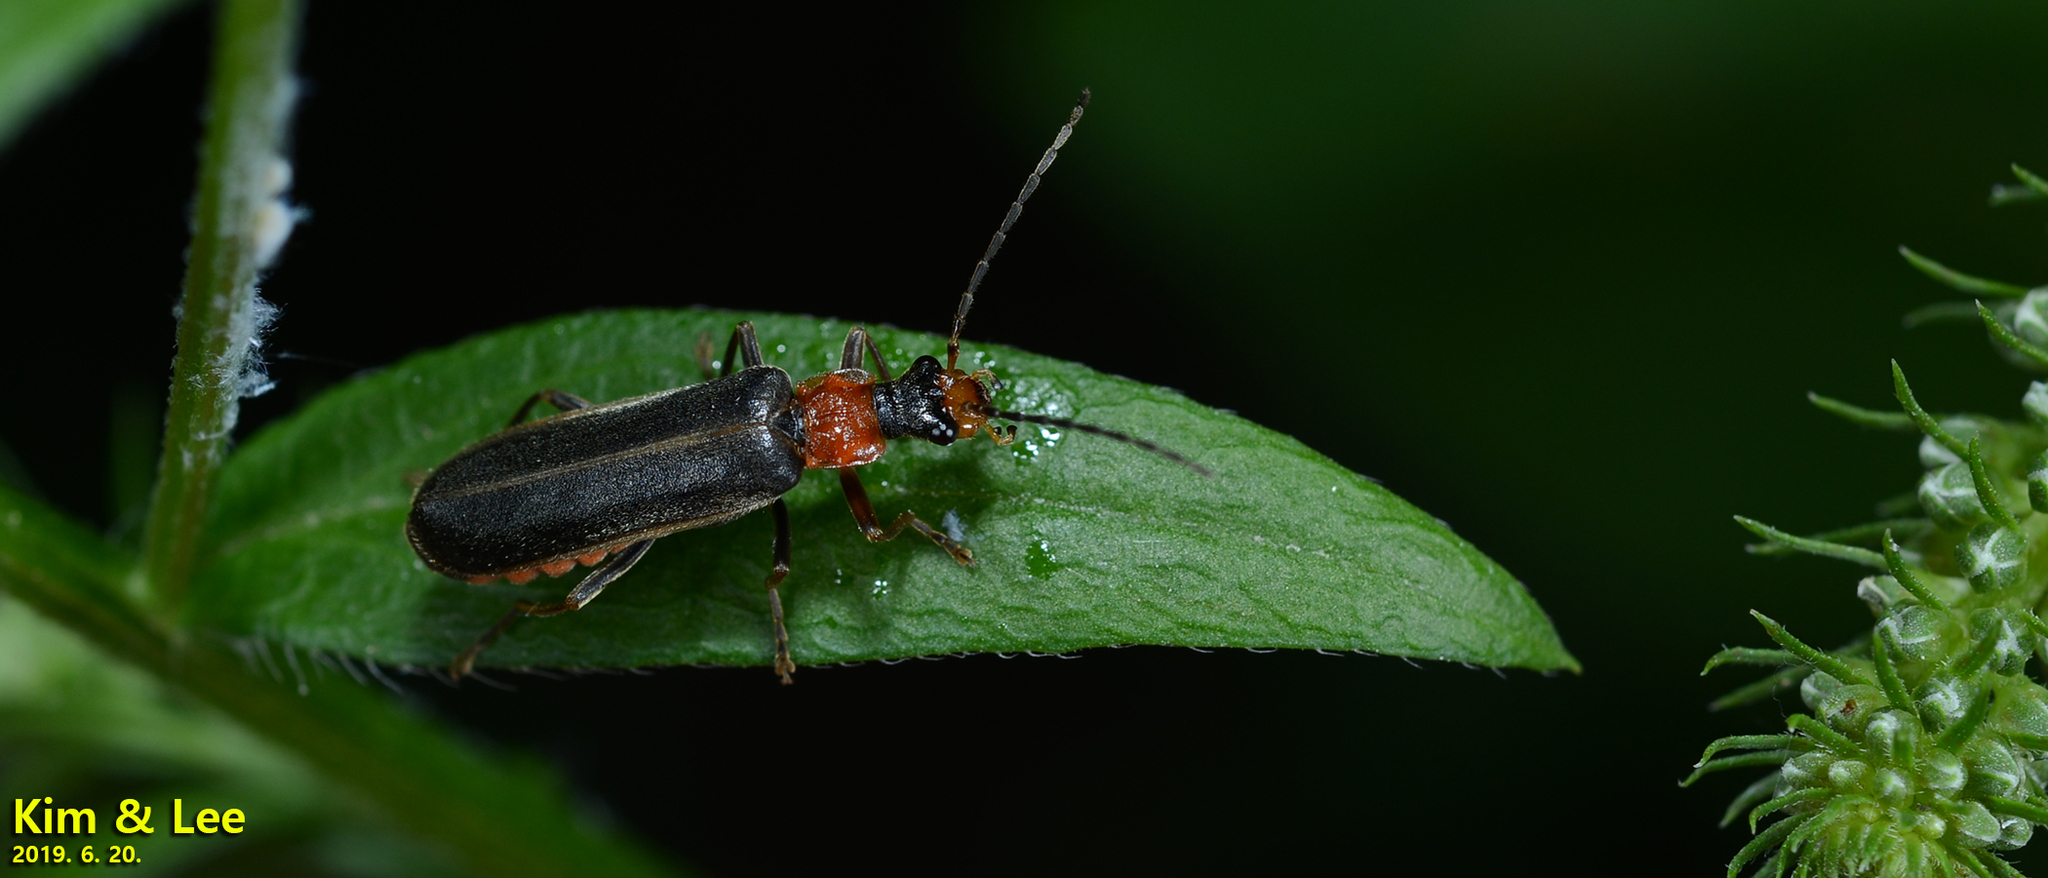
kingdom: Animalia
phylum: Arthropoda
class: Insecta
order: Coleoptera
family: Cantharidae
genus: Hatchiana
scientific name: Hatchiana glochidiatus
